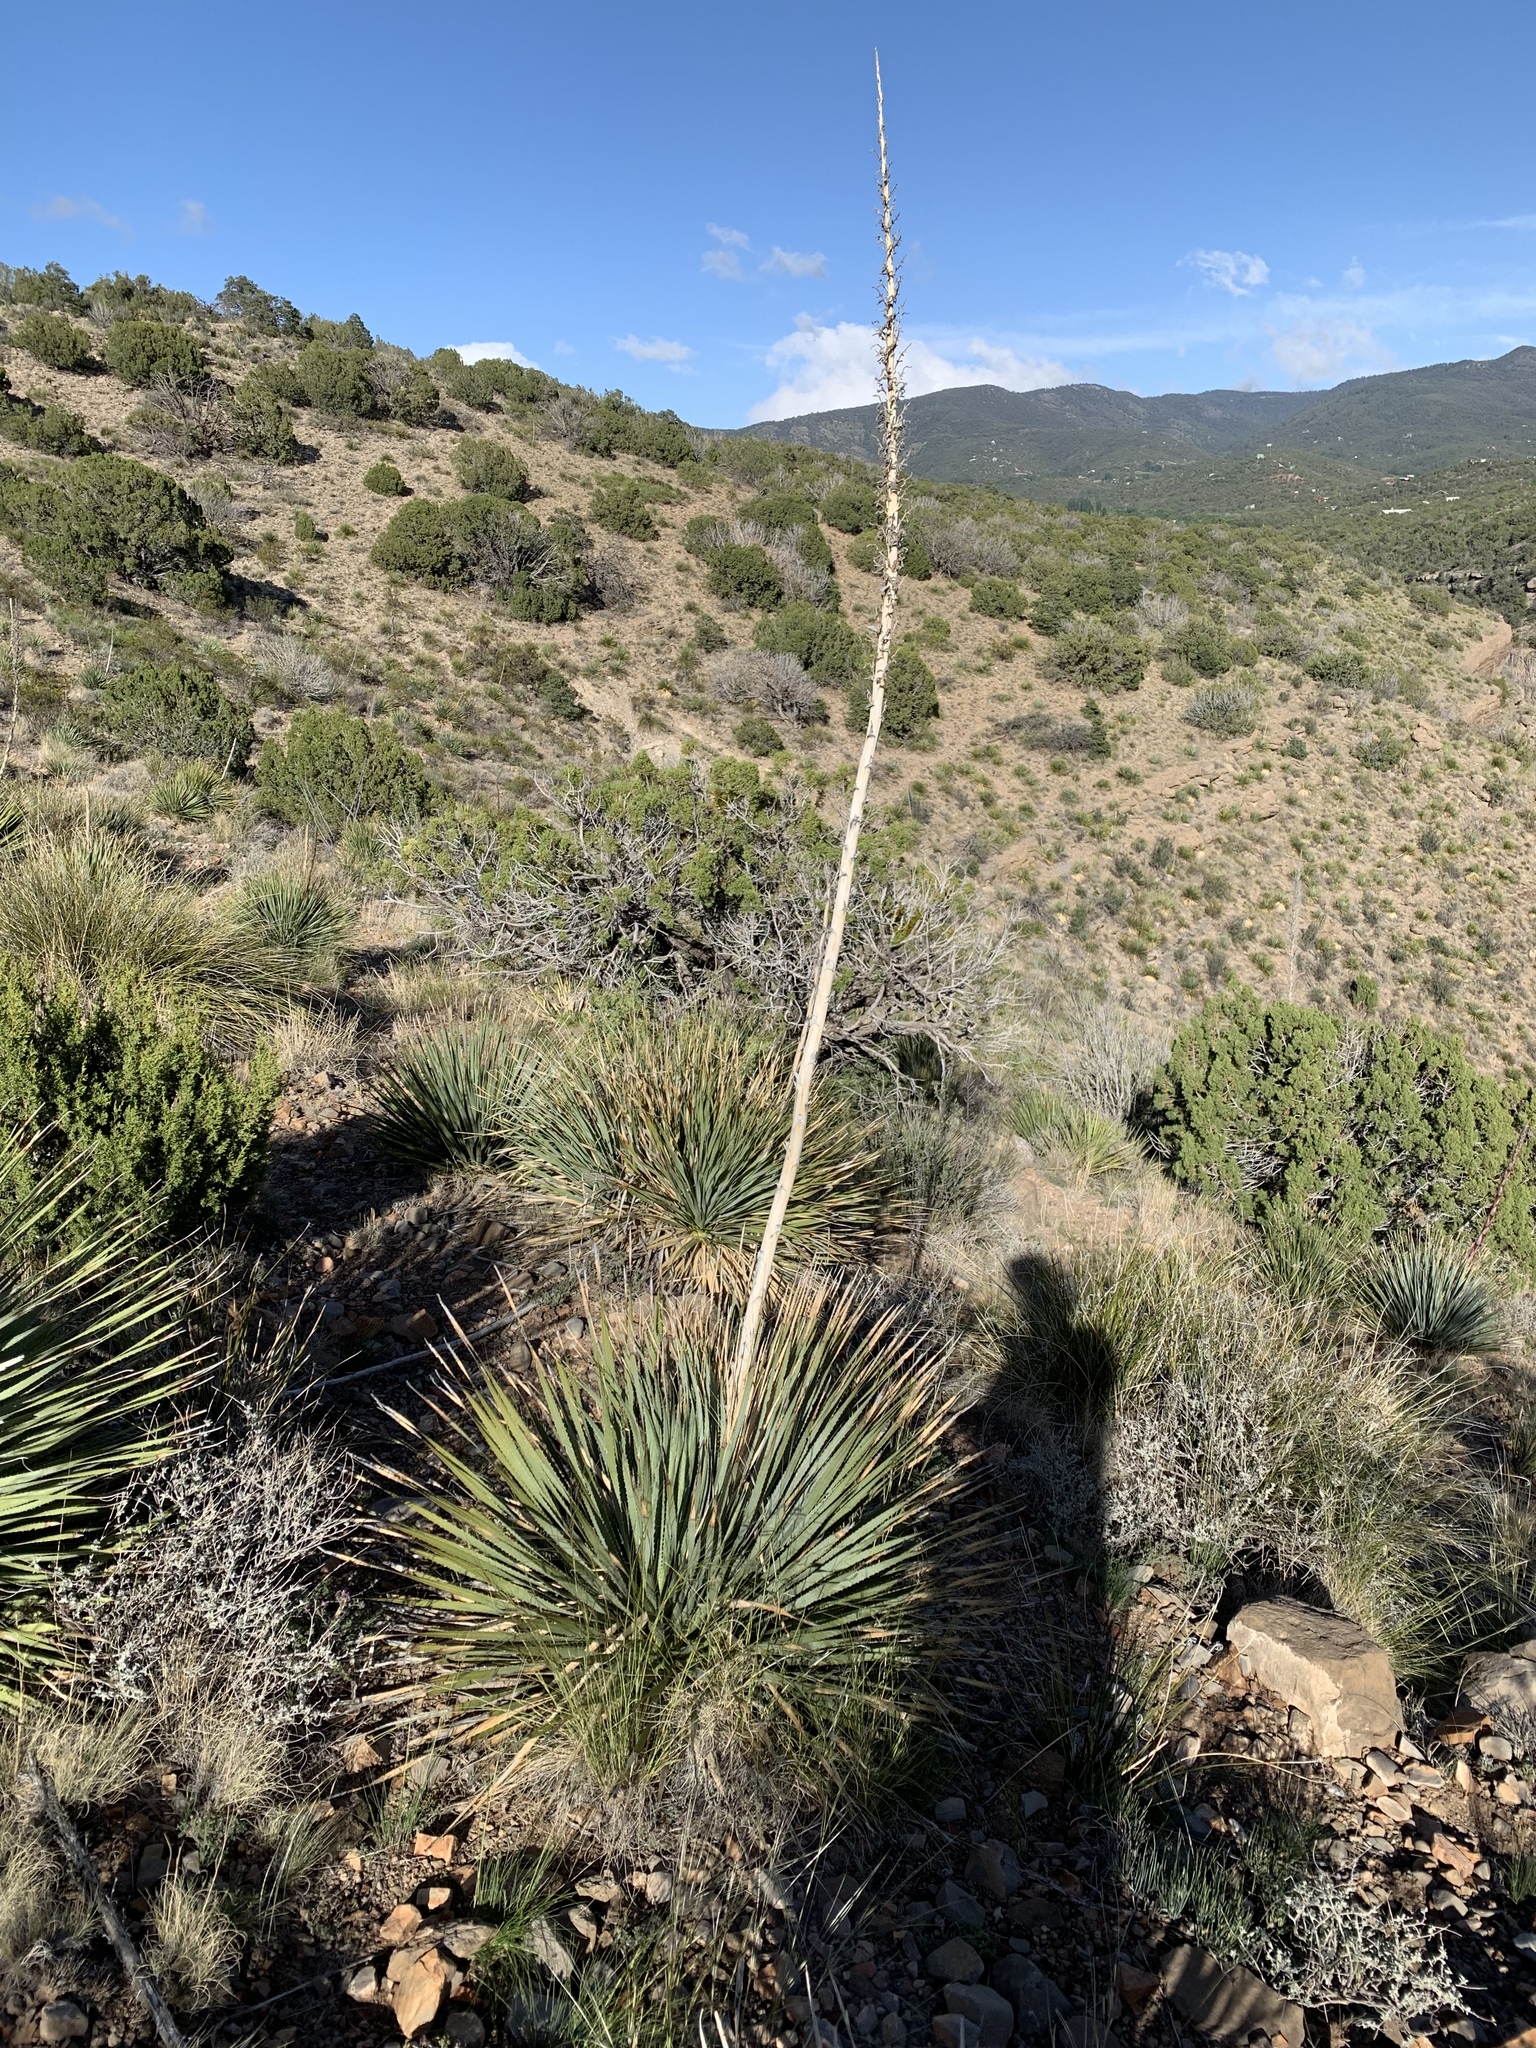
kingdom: Plantae
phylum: Tracheophyta
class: Liliopsida
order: Asparagales
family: Asparagaceae
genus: Dasylirion
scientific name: Dasylirion wheeleri
